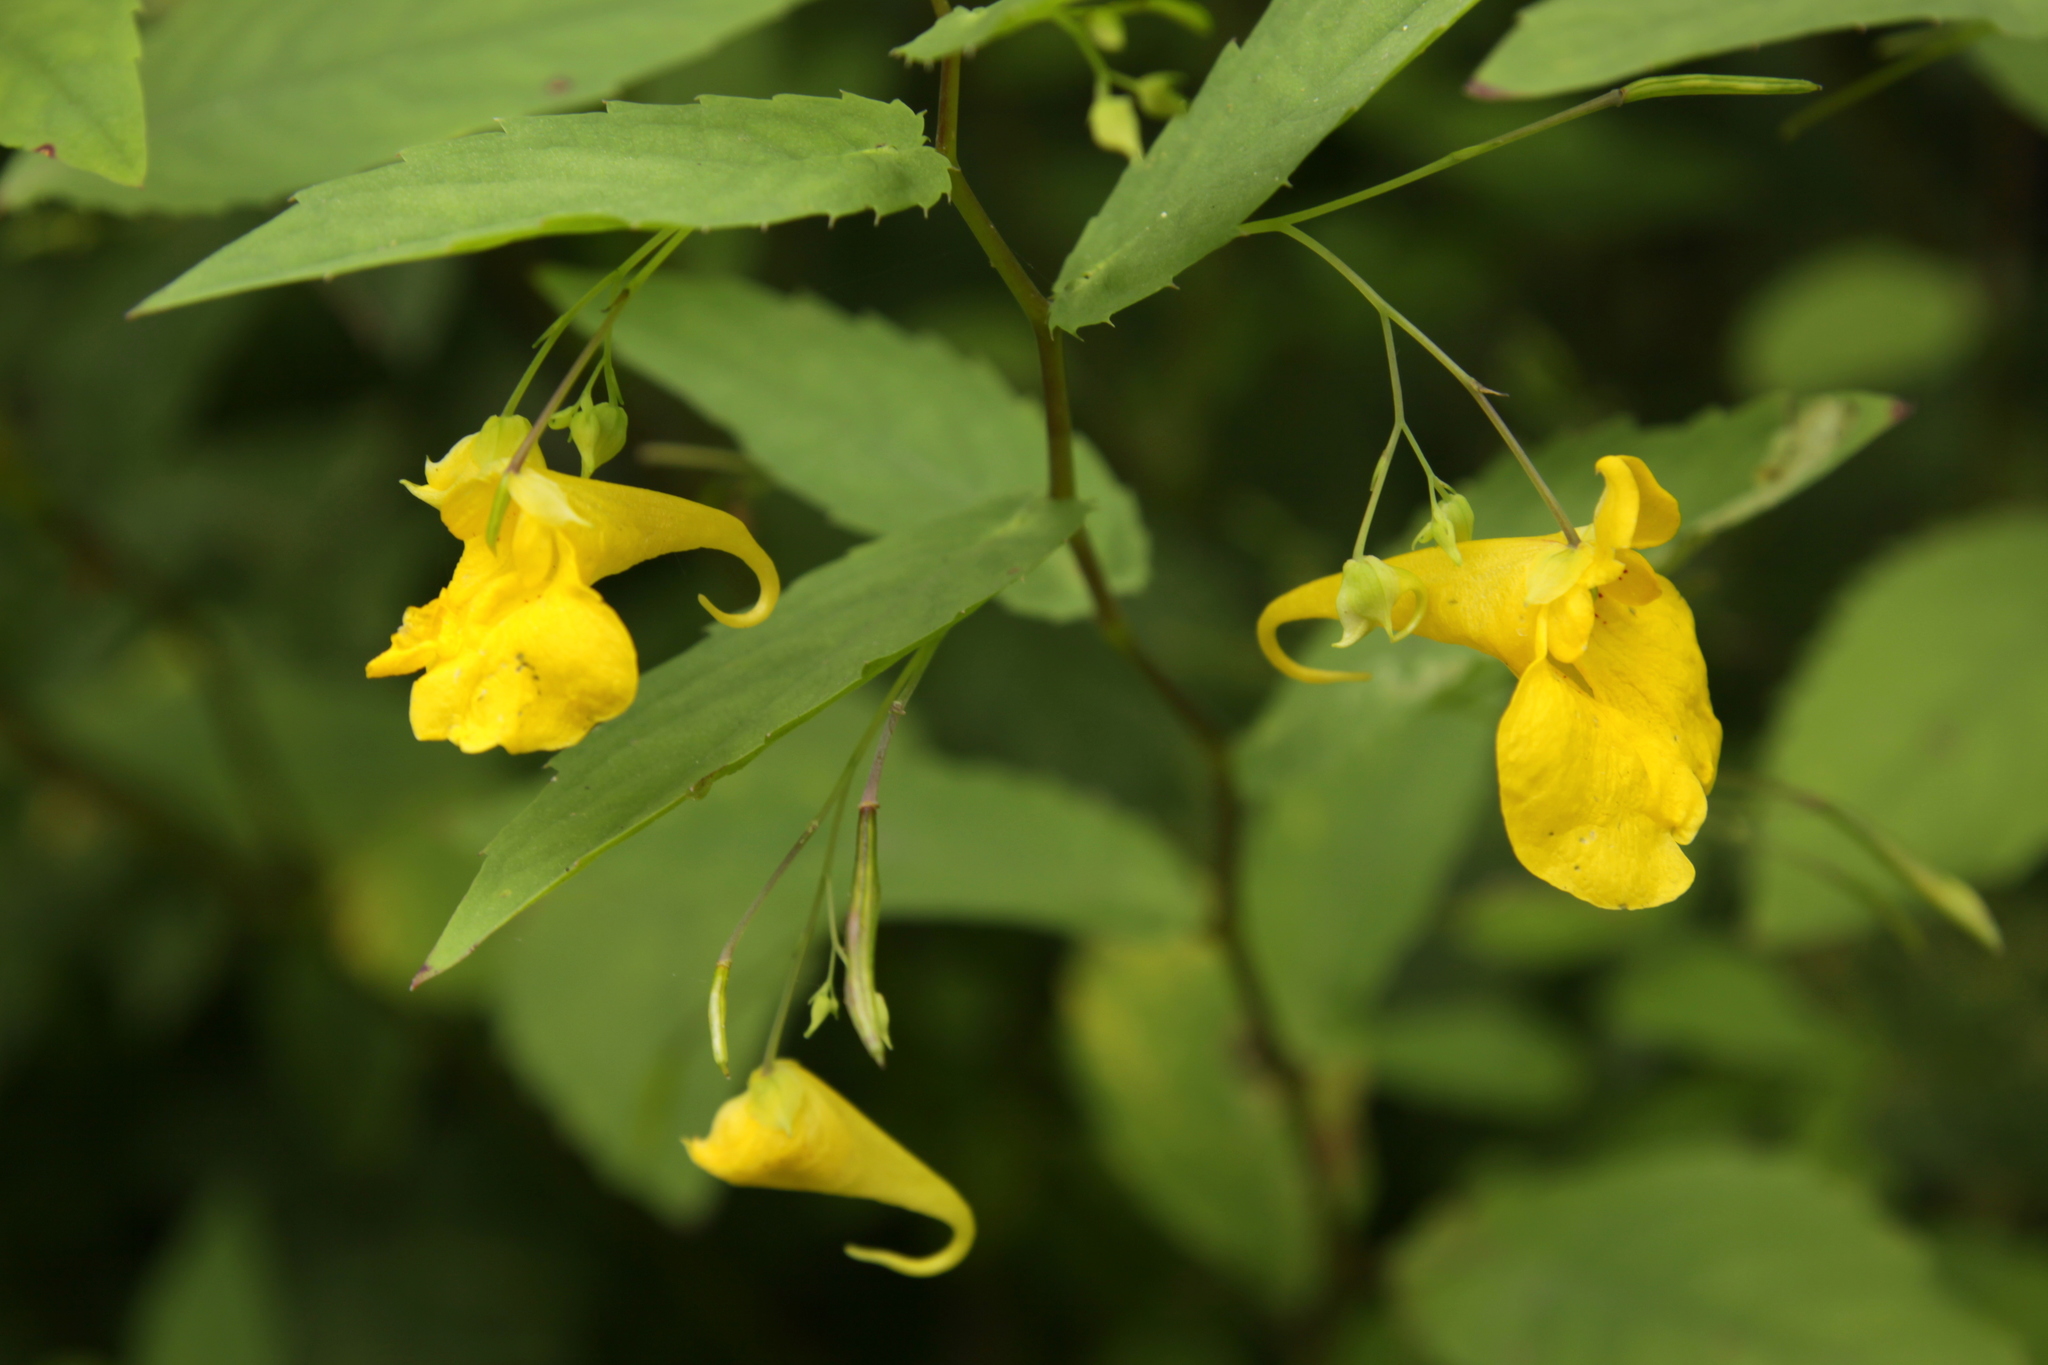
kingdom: Plantae
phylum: Tracheophyta
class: Magnoliopsida
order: Ericales
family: Balsaminaceae
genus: Impatiens
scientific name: Impatiens noli-tangere
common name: Touch-me-not balsam
